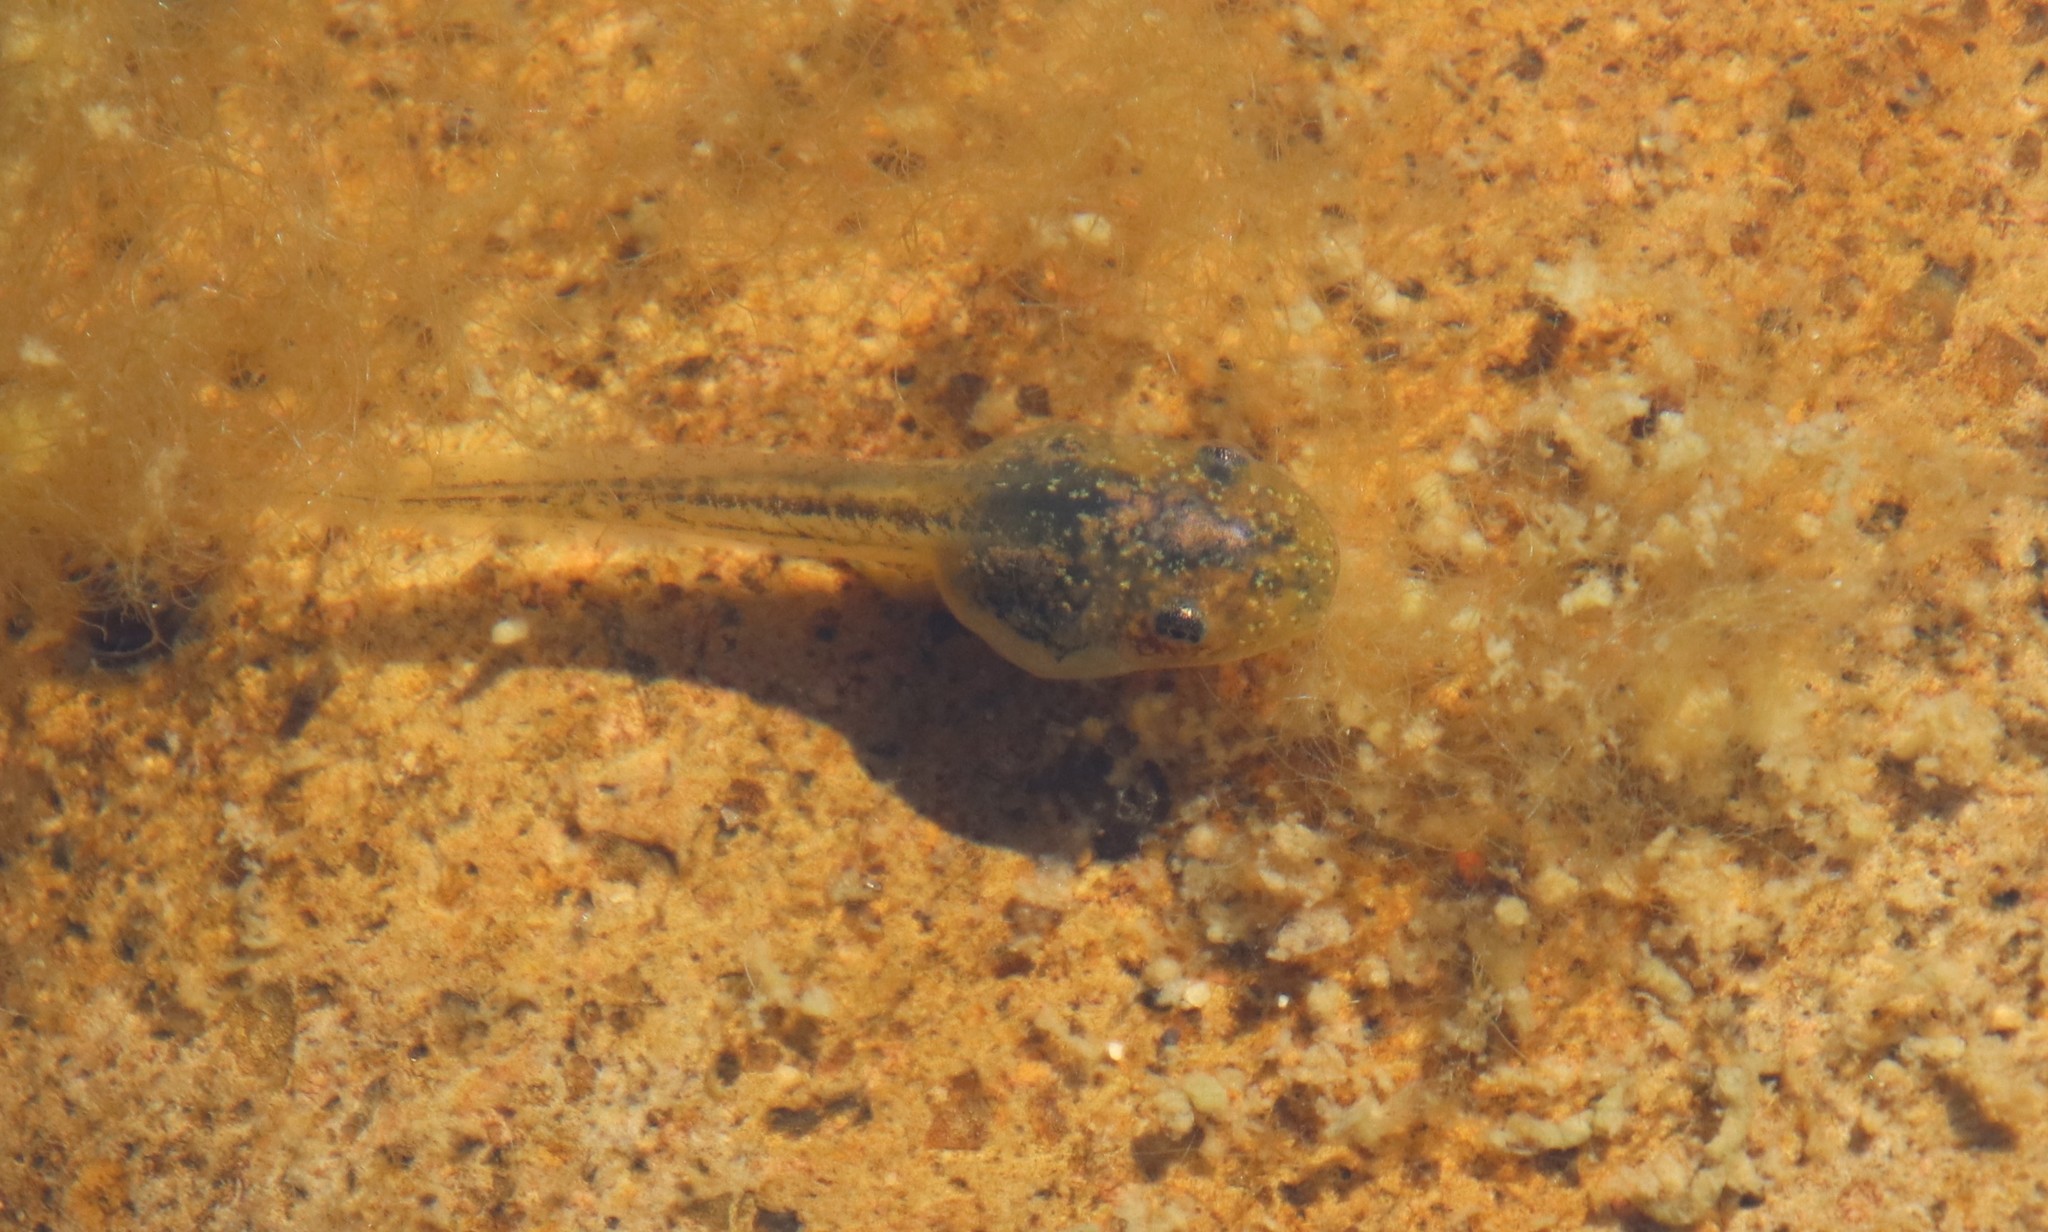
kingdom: Animalia
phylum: Chordata
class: Amphibia
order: Anura
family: Hylidae
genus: Pseudacris
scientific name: Pseudacris regilla
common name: Pacific chorus frog
